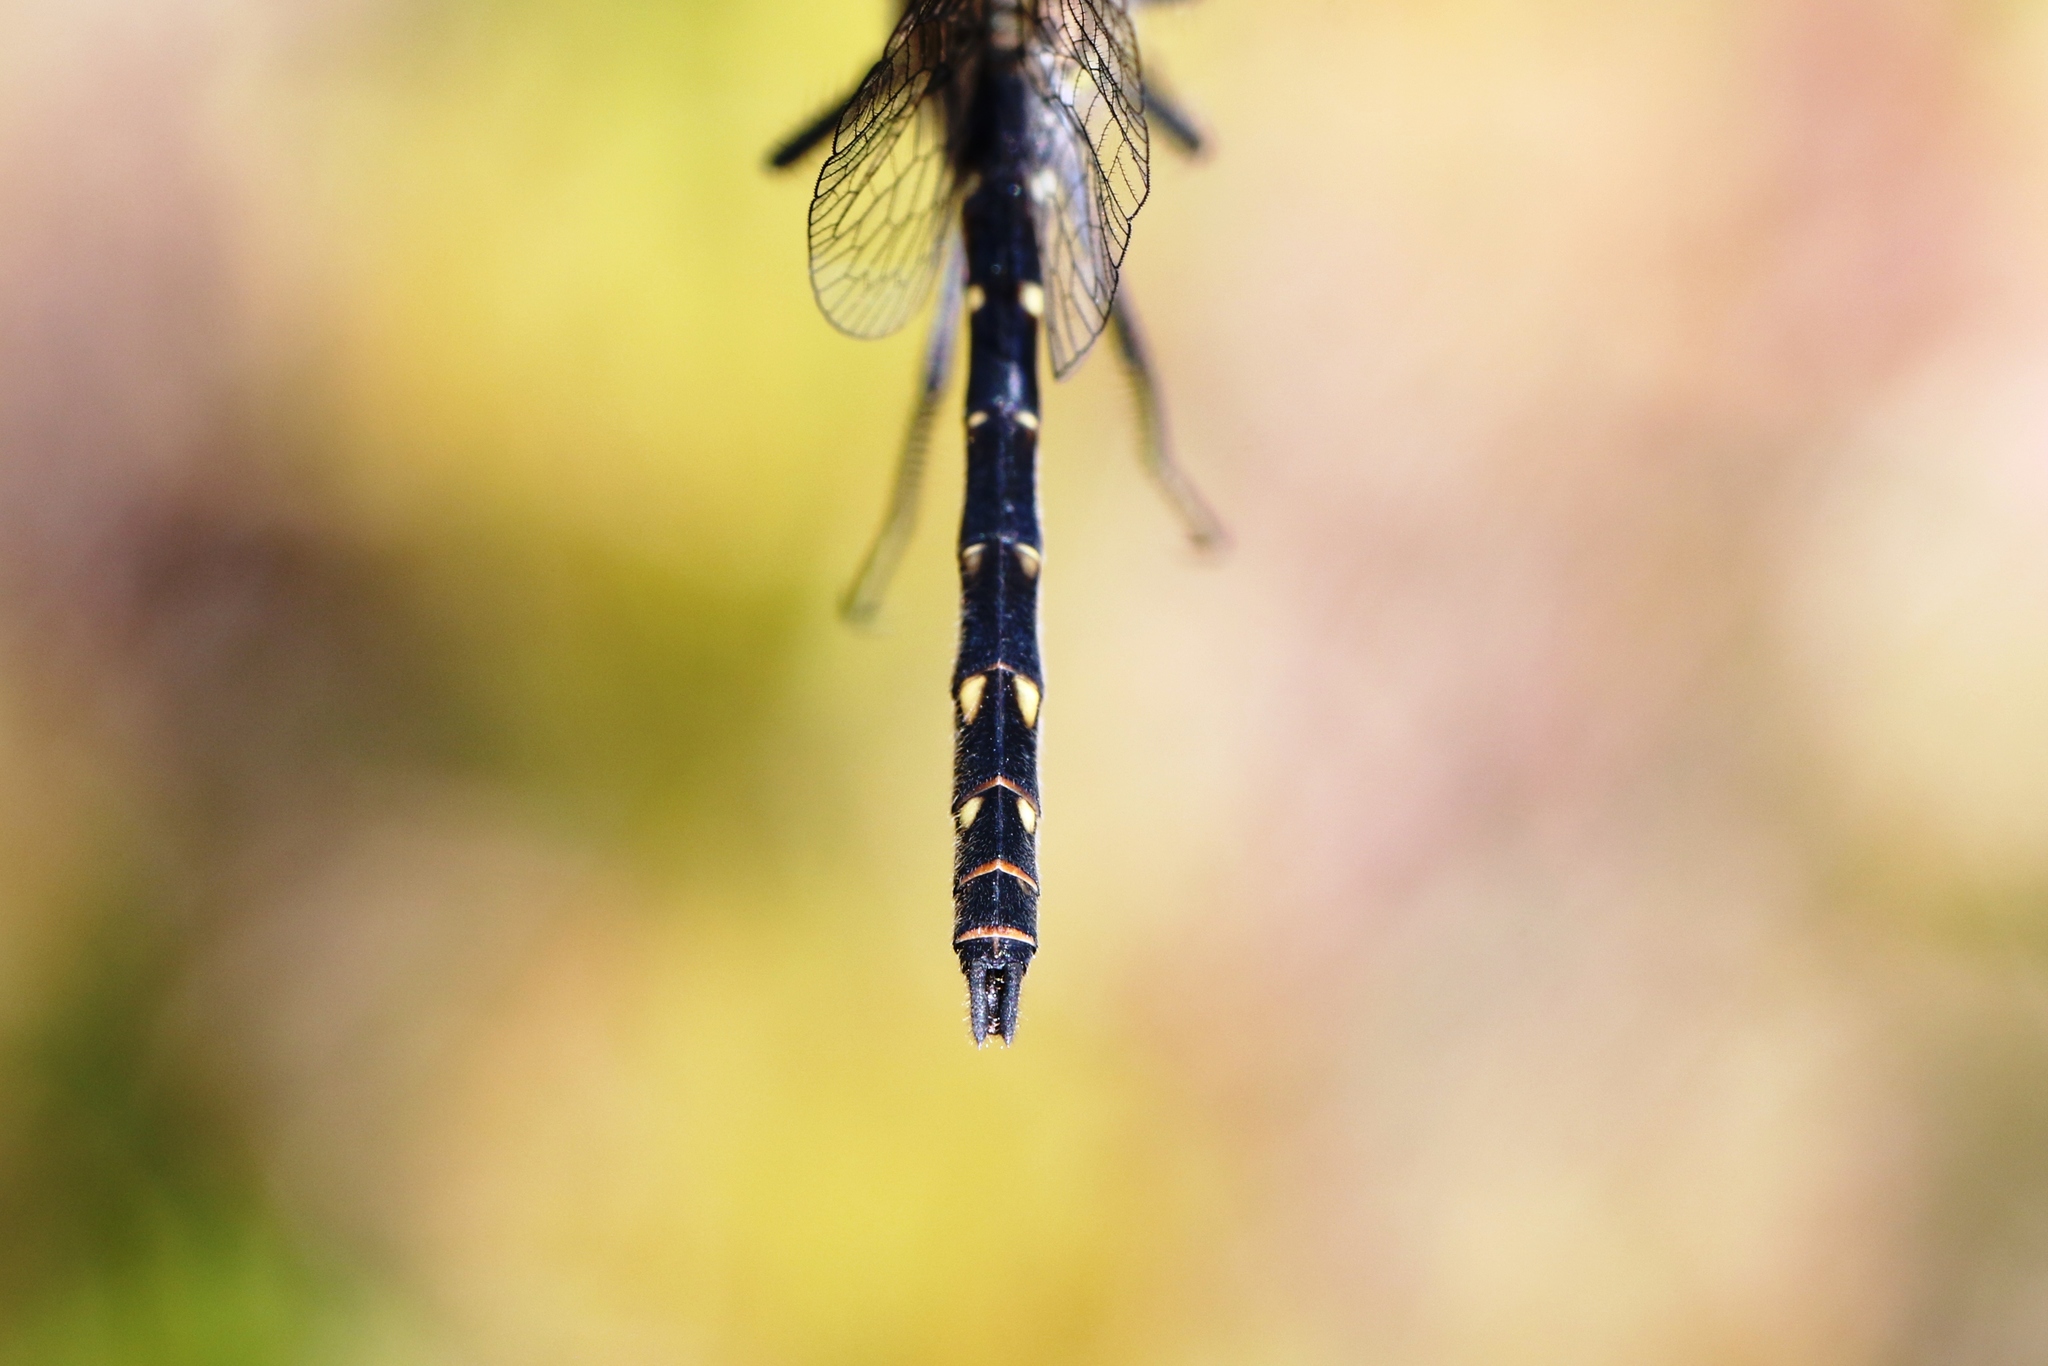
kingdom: Animalia
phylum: Arthropoda
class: Insecta
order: Odonata
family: Libellulidae
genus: Sympetrum
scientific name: Sympetrum danae
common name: Black darter
